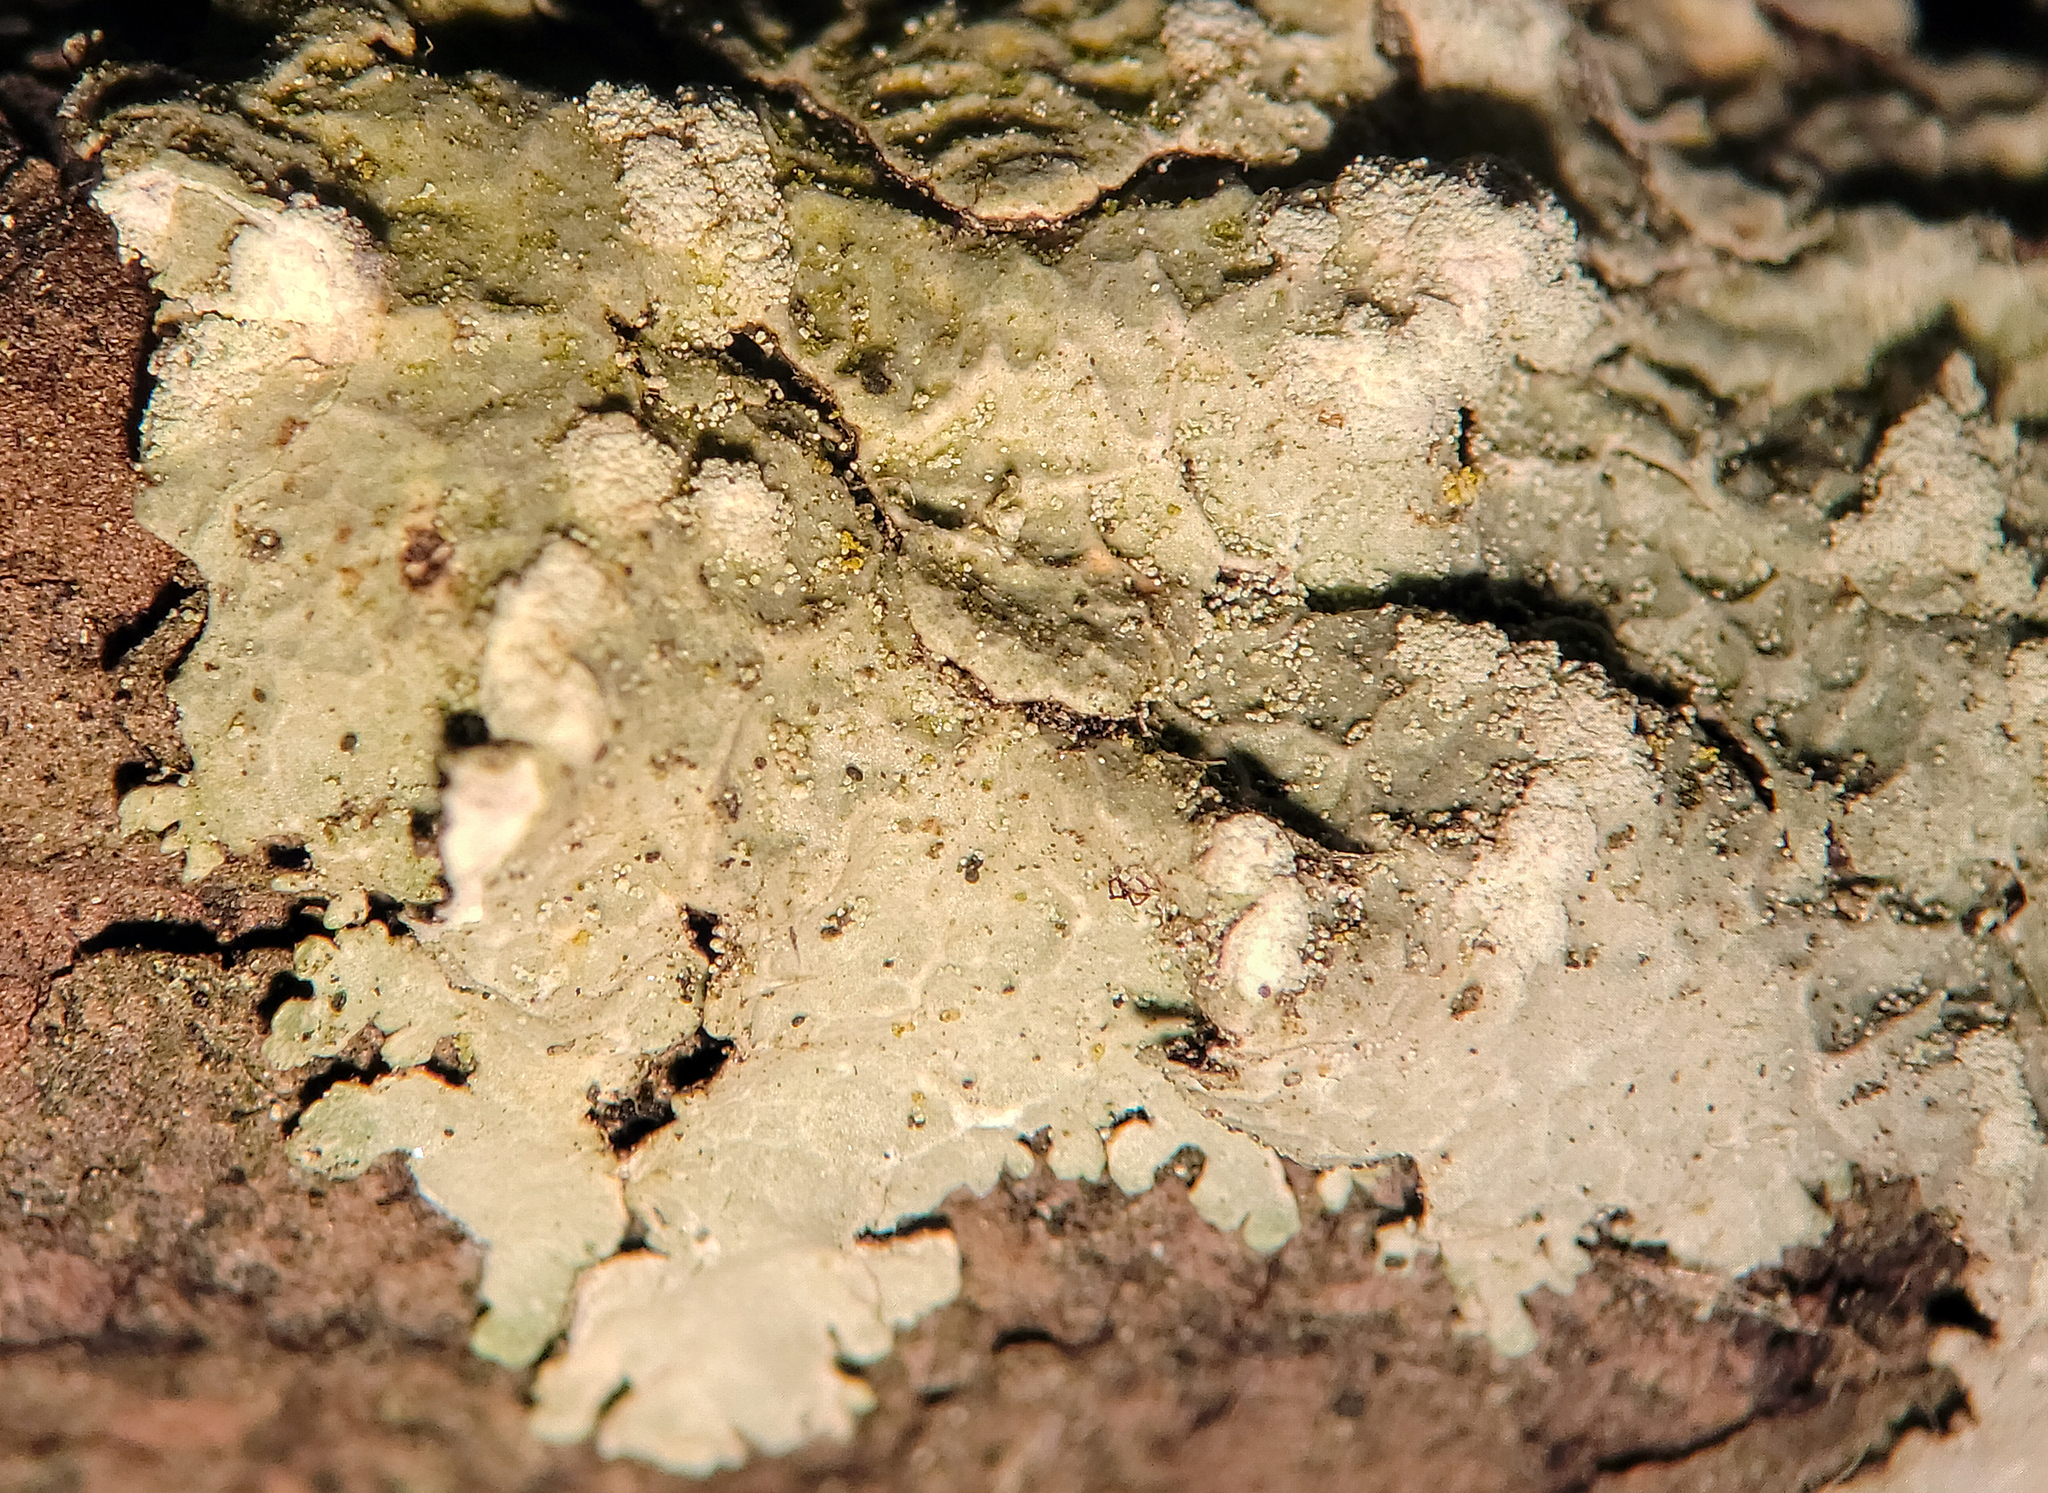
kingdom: Fungi
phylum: Ascomycota
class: Lecanoromycetes
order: Lecanorales
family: Parmeliaceae
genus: Crespoa
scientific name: Crespoa crozalsiana
